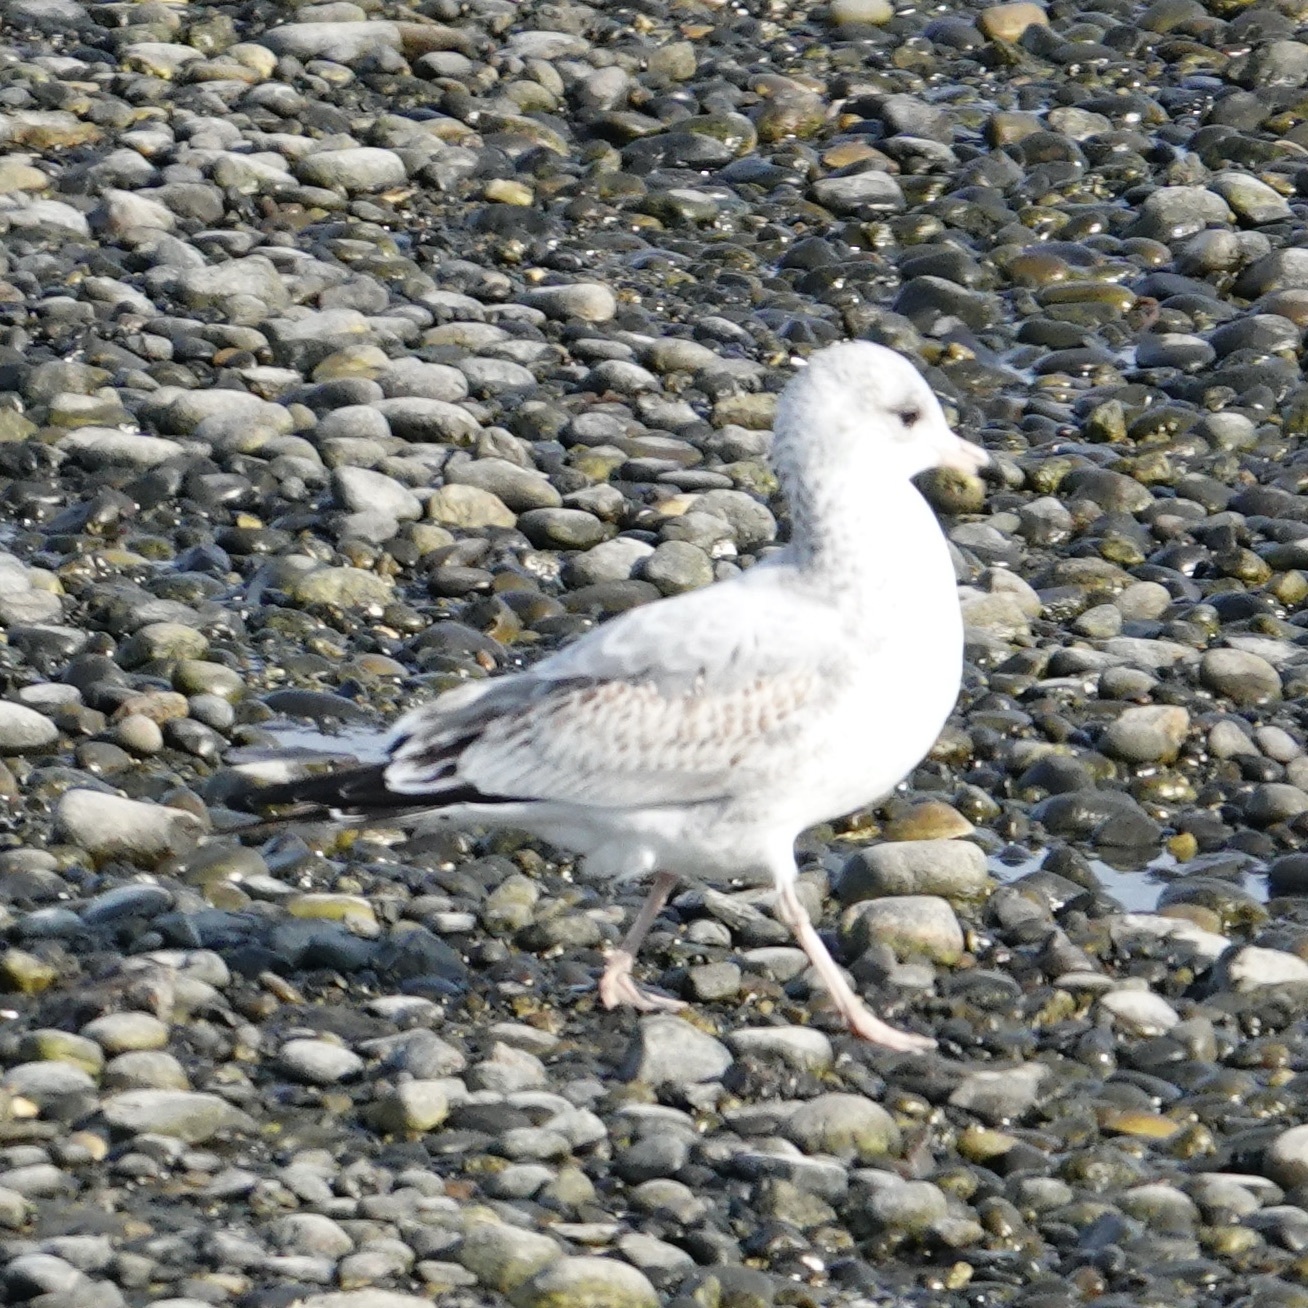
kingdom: Animalia
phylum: Chordata
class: Aves
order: Charadriiformes
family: Laridae
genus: Larus
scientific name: Larus delawarensis
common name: Ring-billed gull
